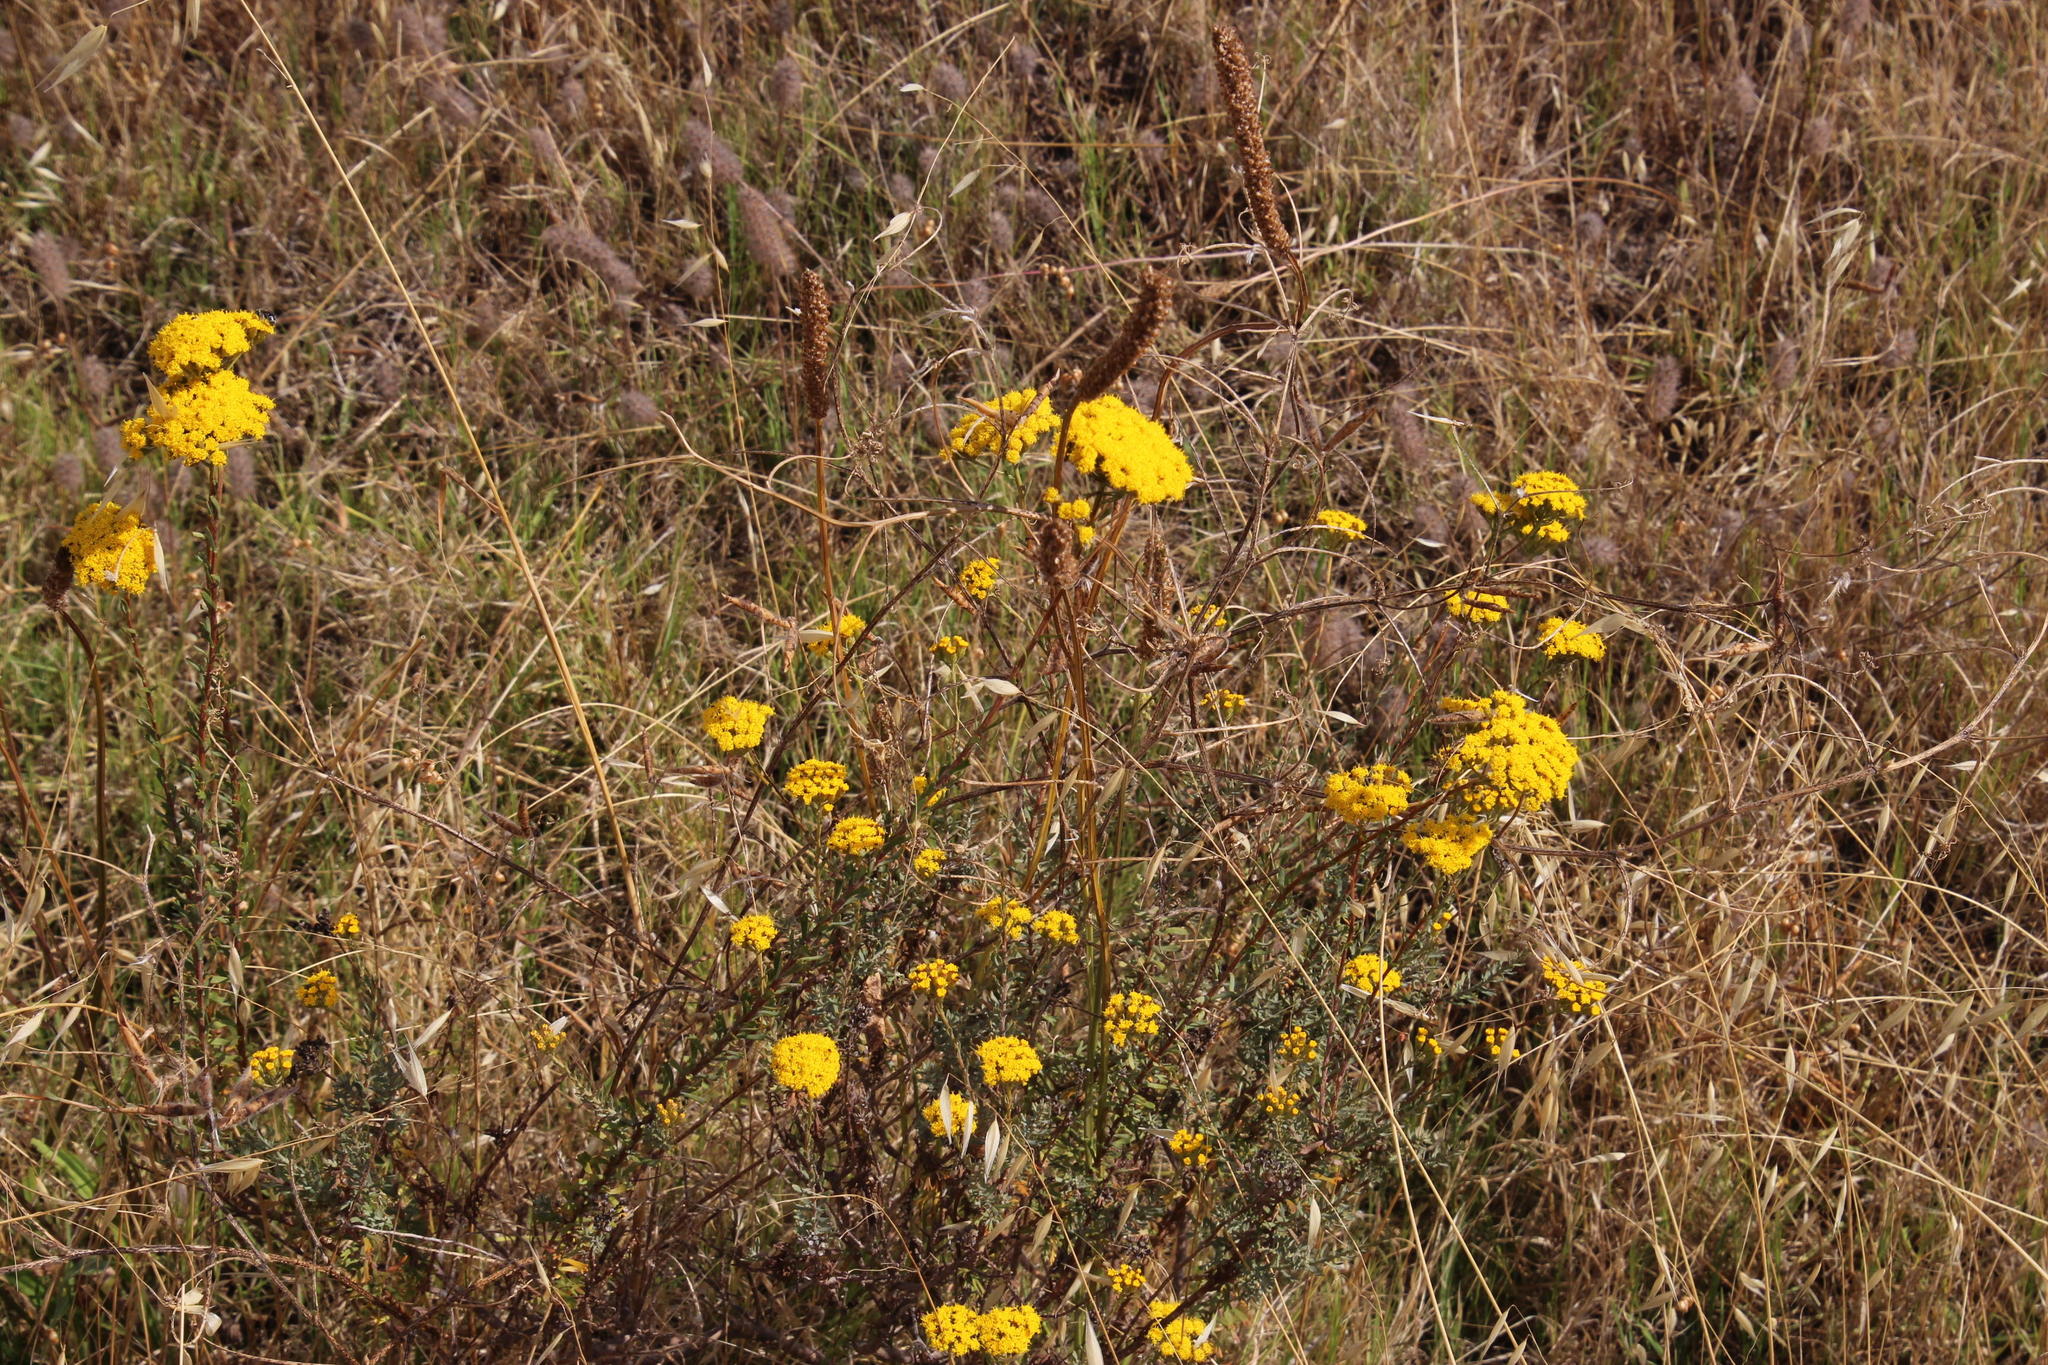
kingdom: Plantae
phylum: Tracheophyta
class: Magnoliopsida
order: Asterales
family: Asteraceae
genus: Athanasia
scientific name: Athanasia trifurcata
